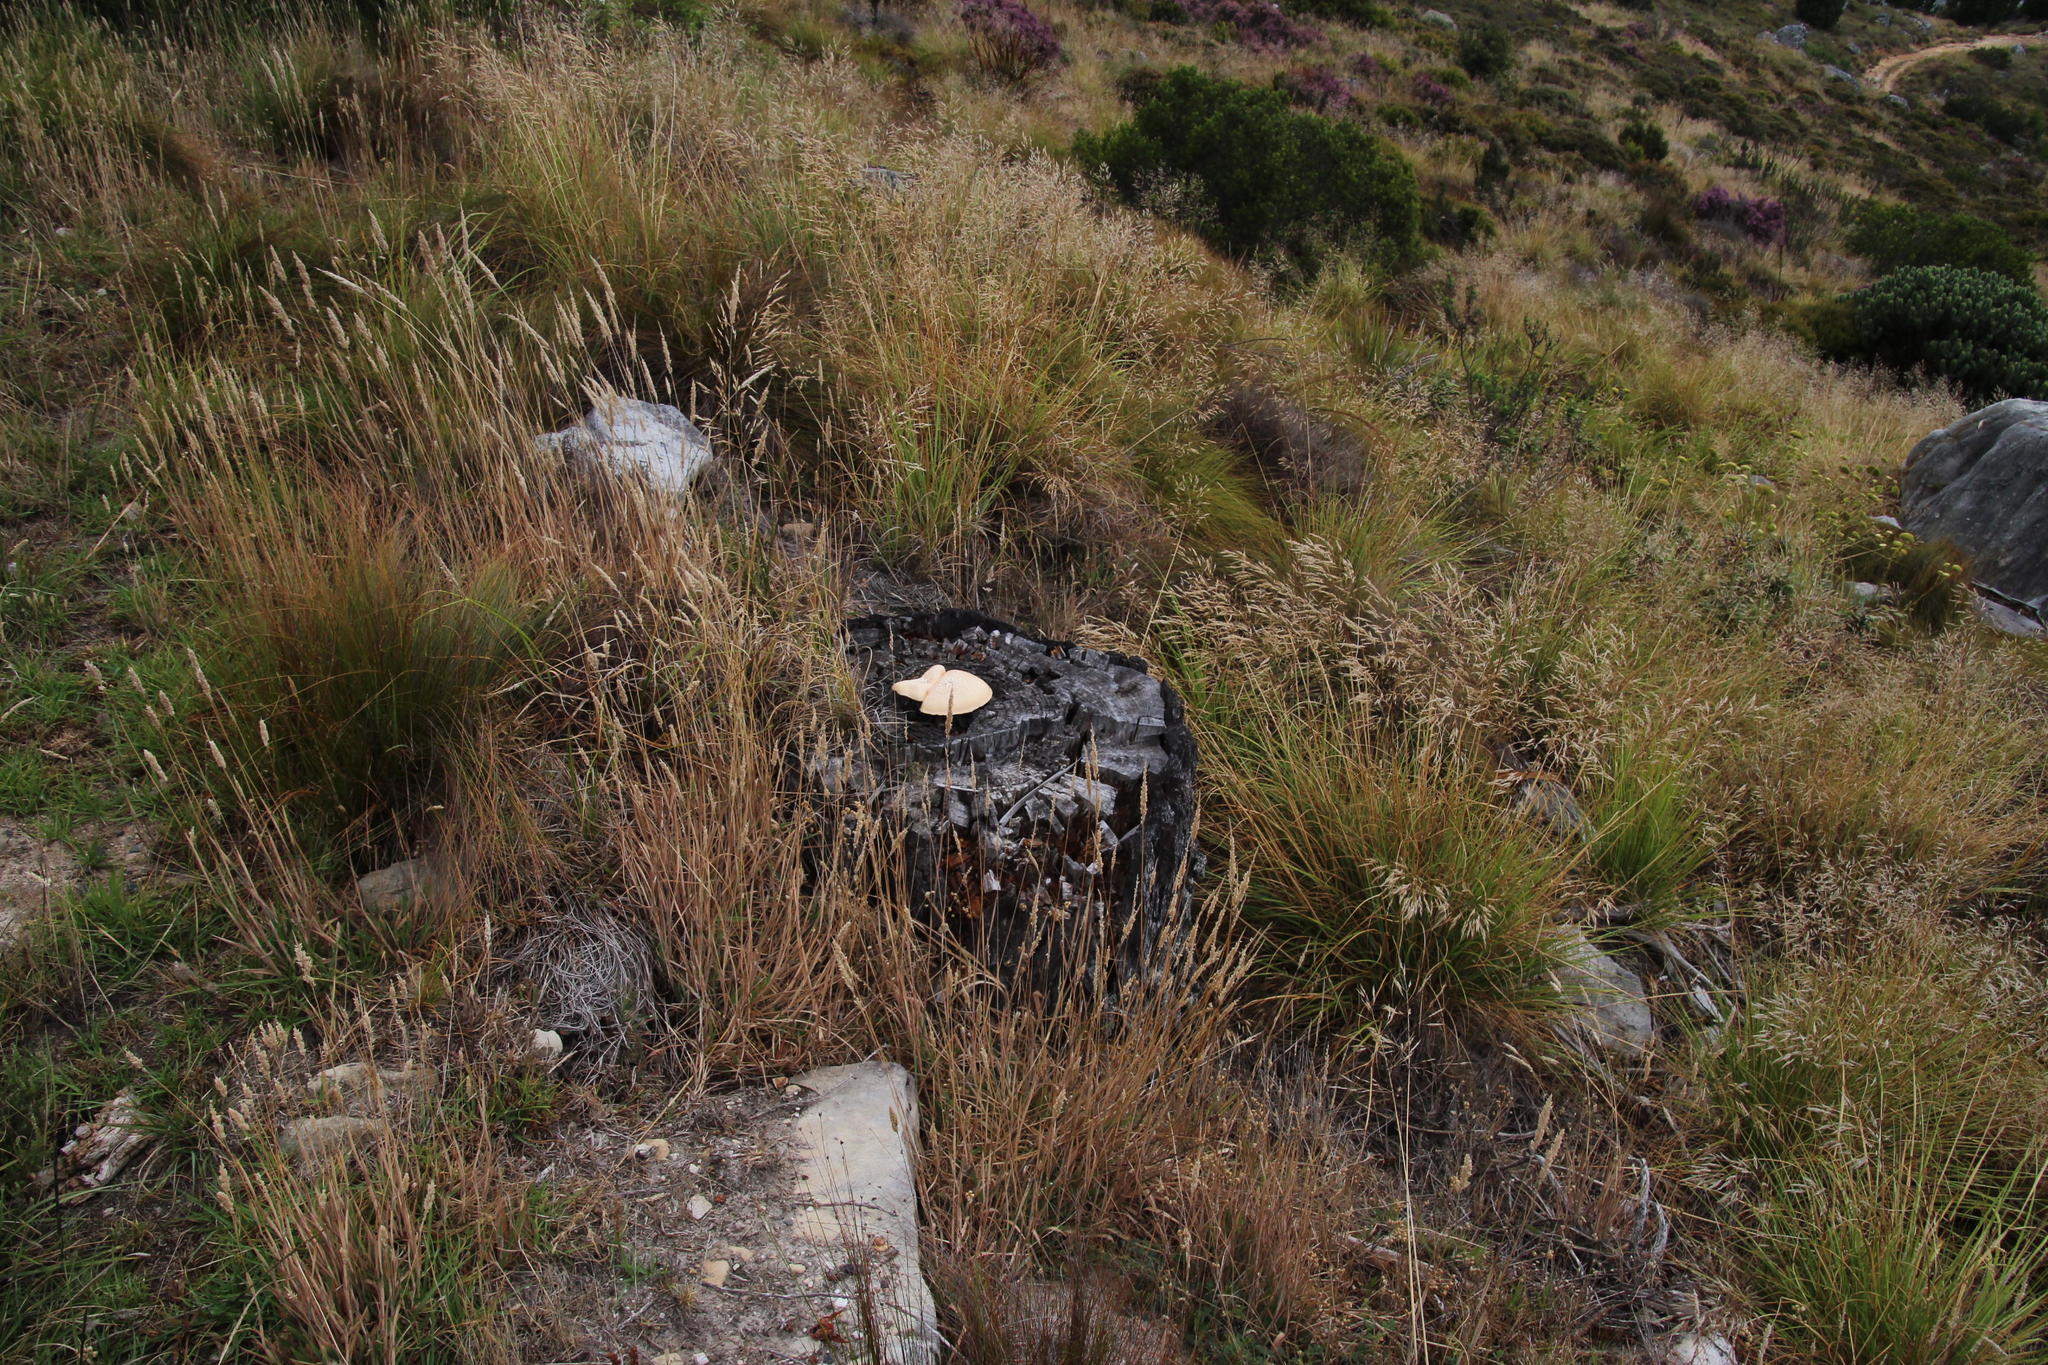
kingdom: Fungi
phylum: Basidiomycota
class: Agaricomycetes
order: Gloeophyllales
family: Gloeophyllaceae
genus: Neolentinus
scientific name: Neolentinus lepideus
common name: Scaly sawgill
